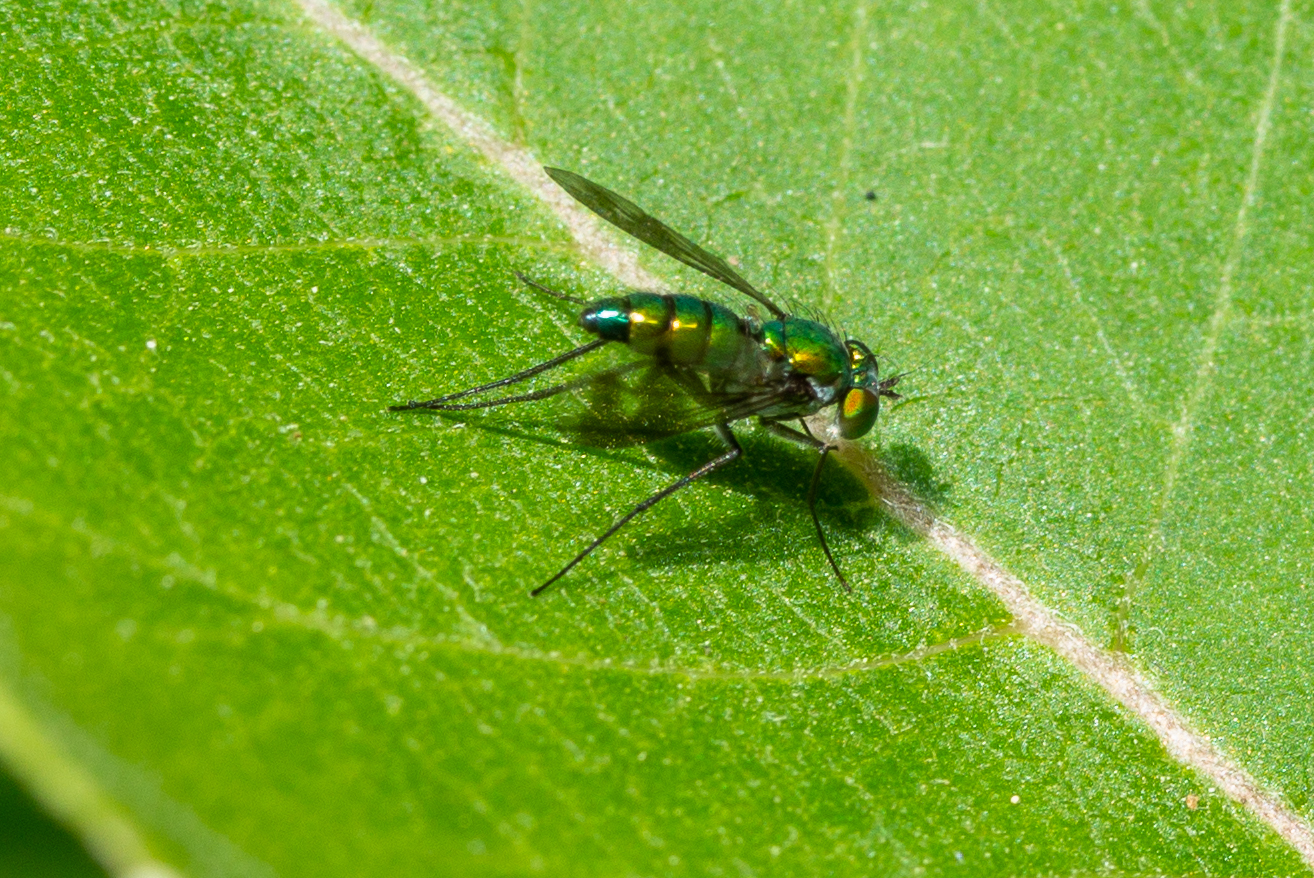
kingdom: Animalia
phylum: Arthropoda
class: Insecta
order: Diptera
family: Dolichopodidae
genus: Condylostylus
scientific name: Condylostylus patibulatus
